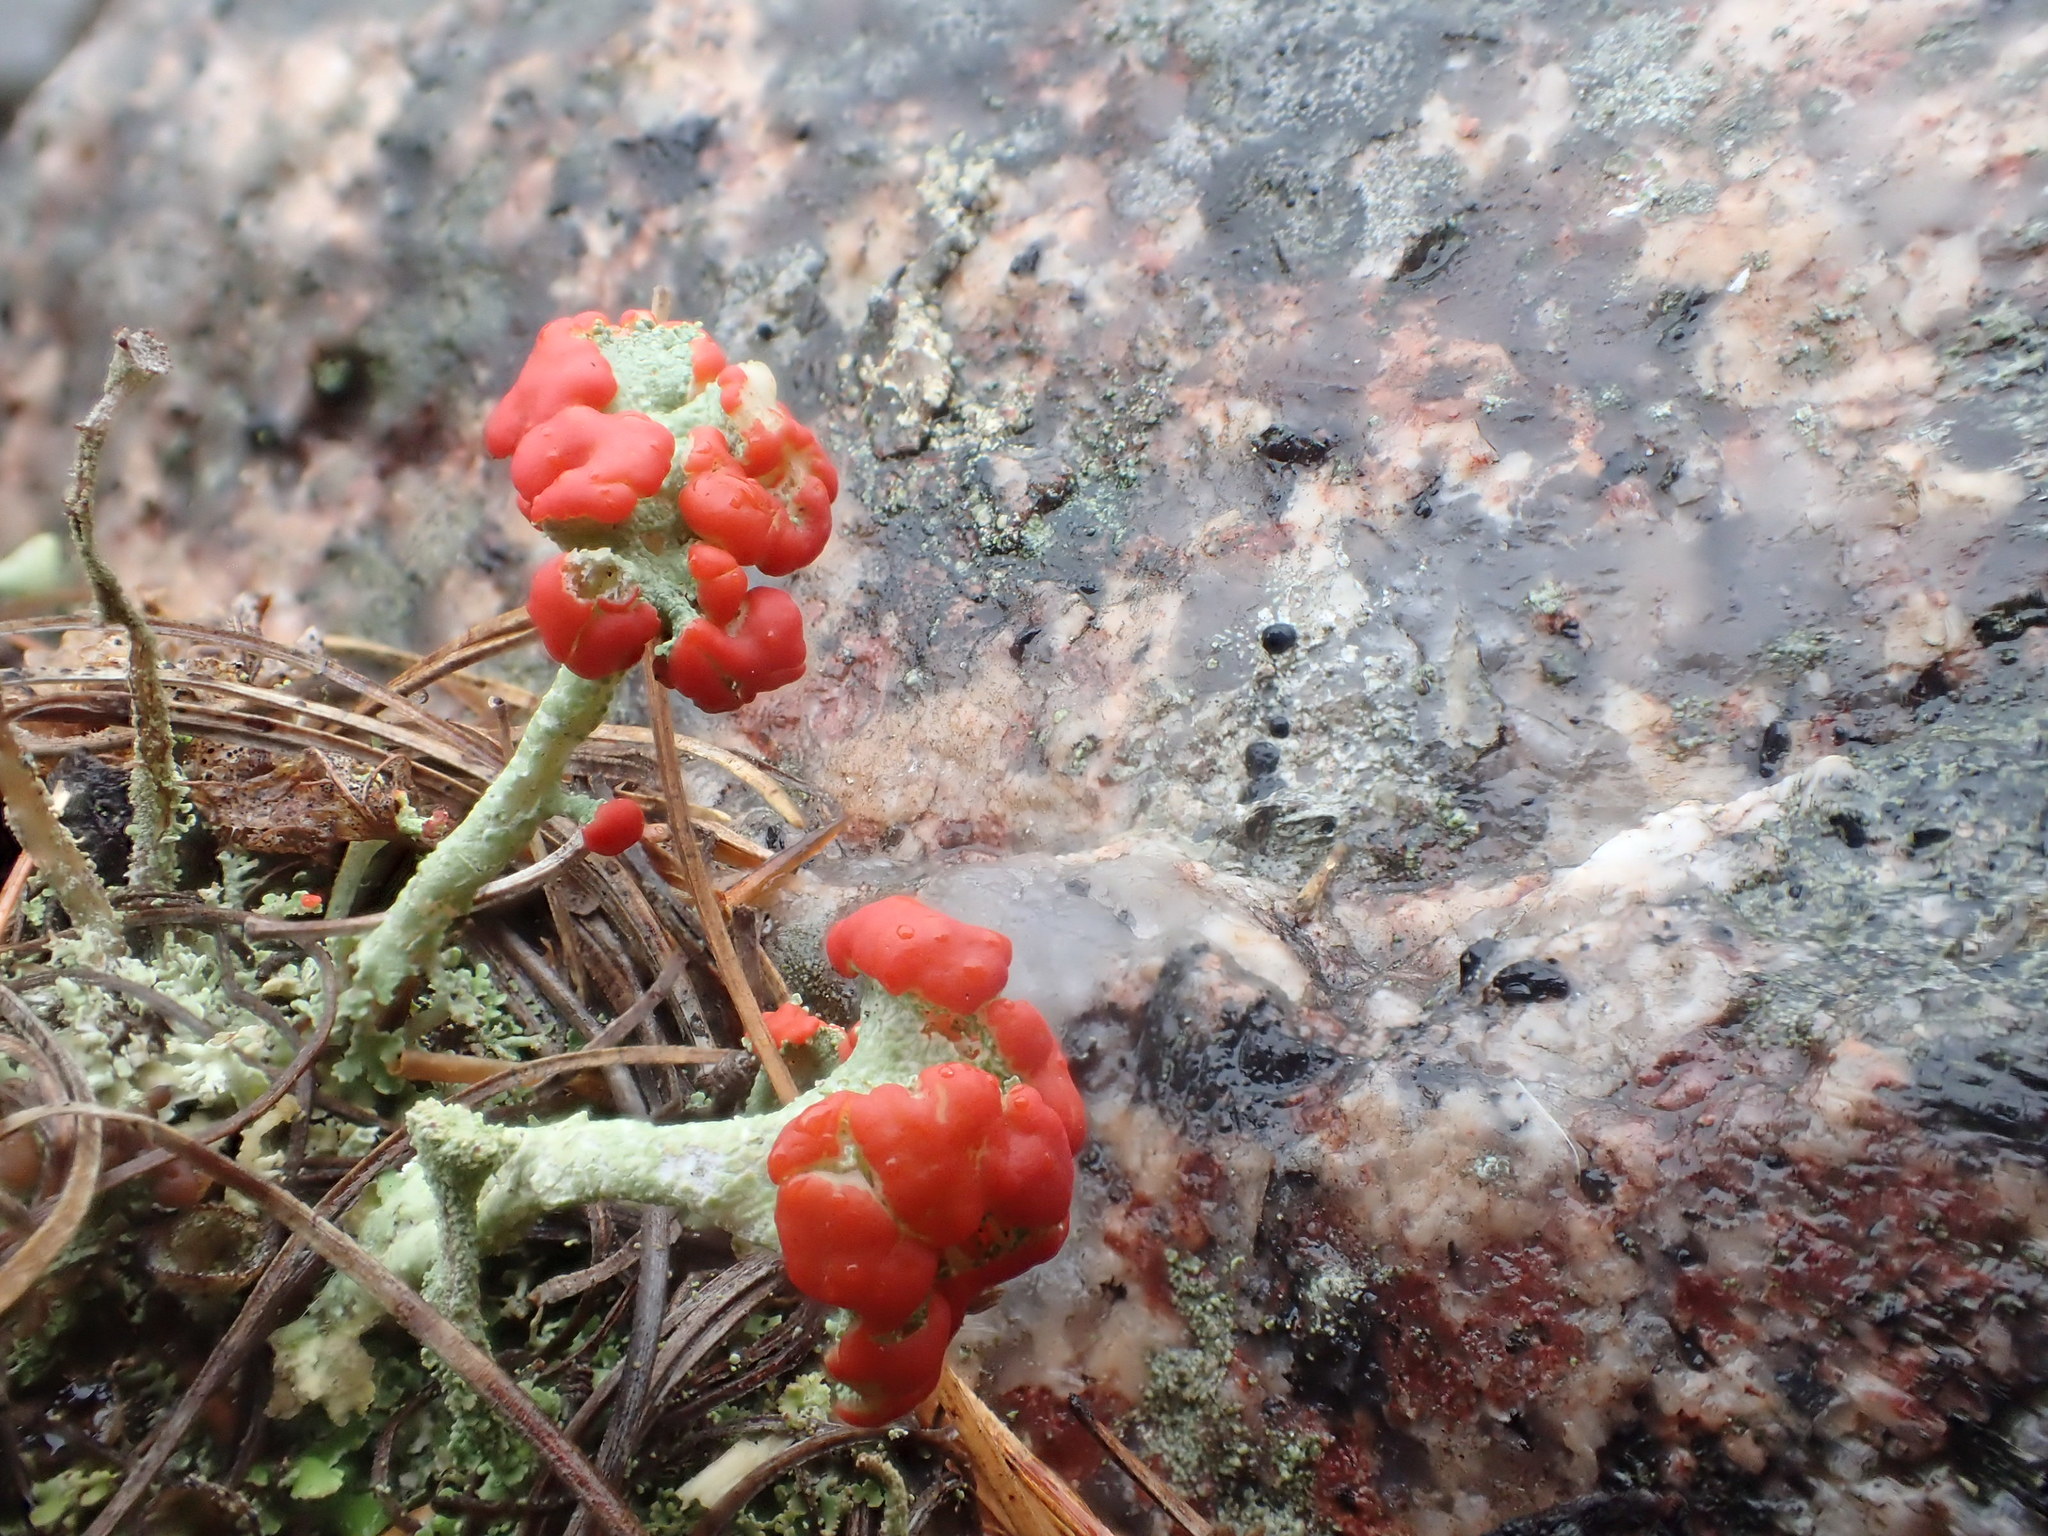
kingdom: Fungi
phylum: Ascomycota
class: Lecanoromycetes
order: Lecanorales
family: Cladoniaceae
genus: Cladonia
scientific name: Cladonia cristatella
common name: British soldier lichen
